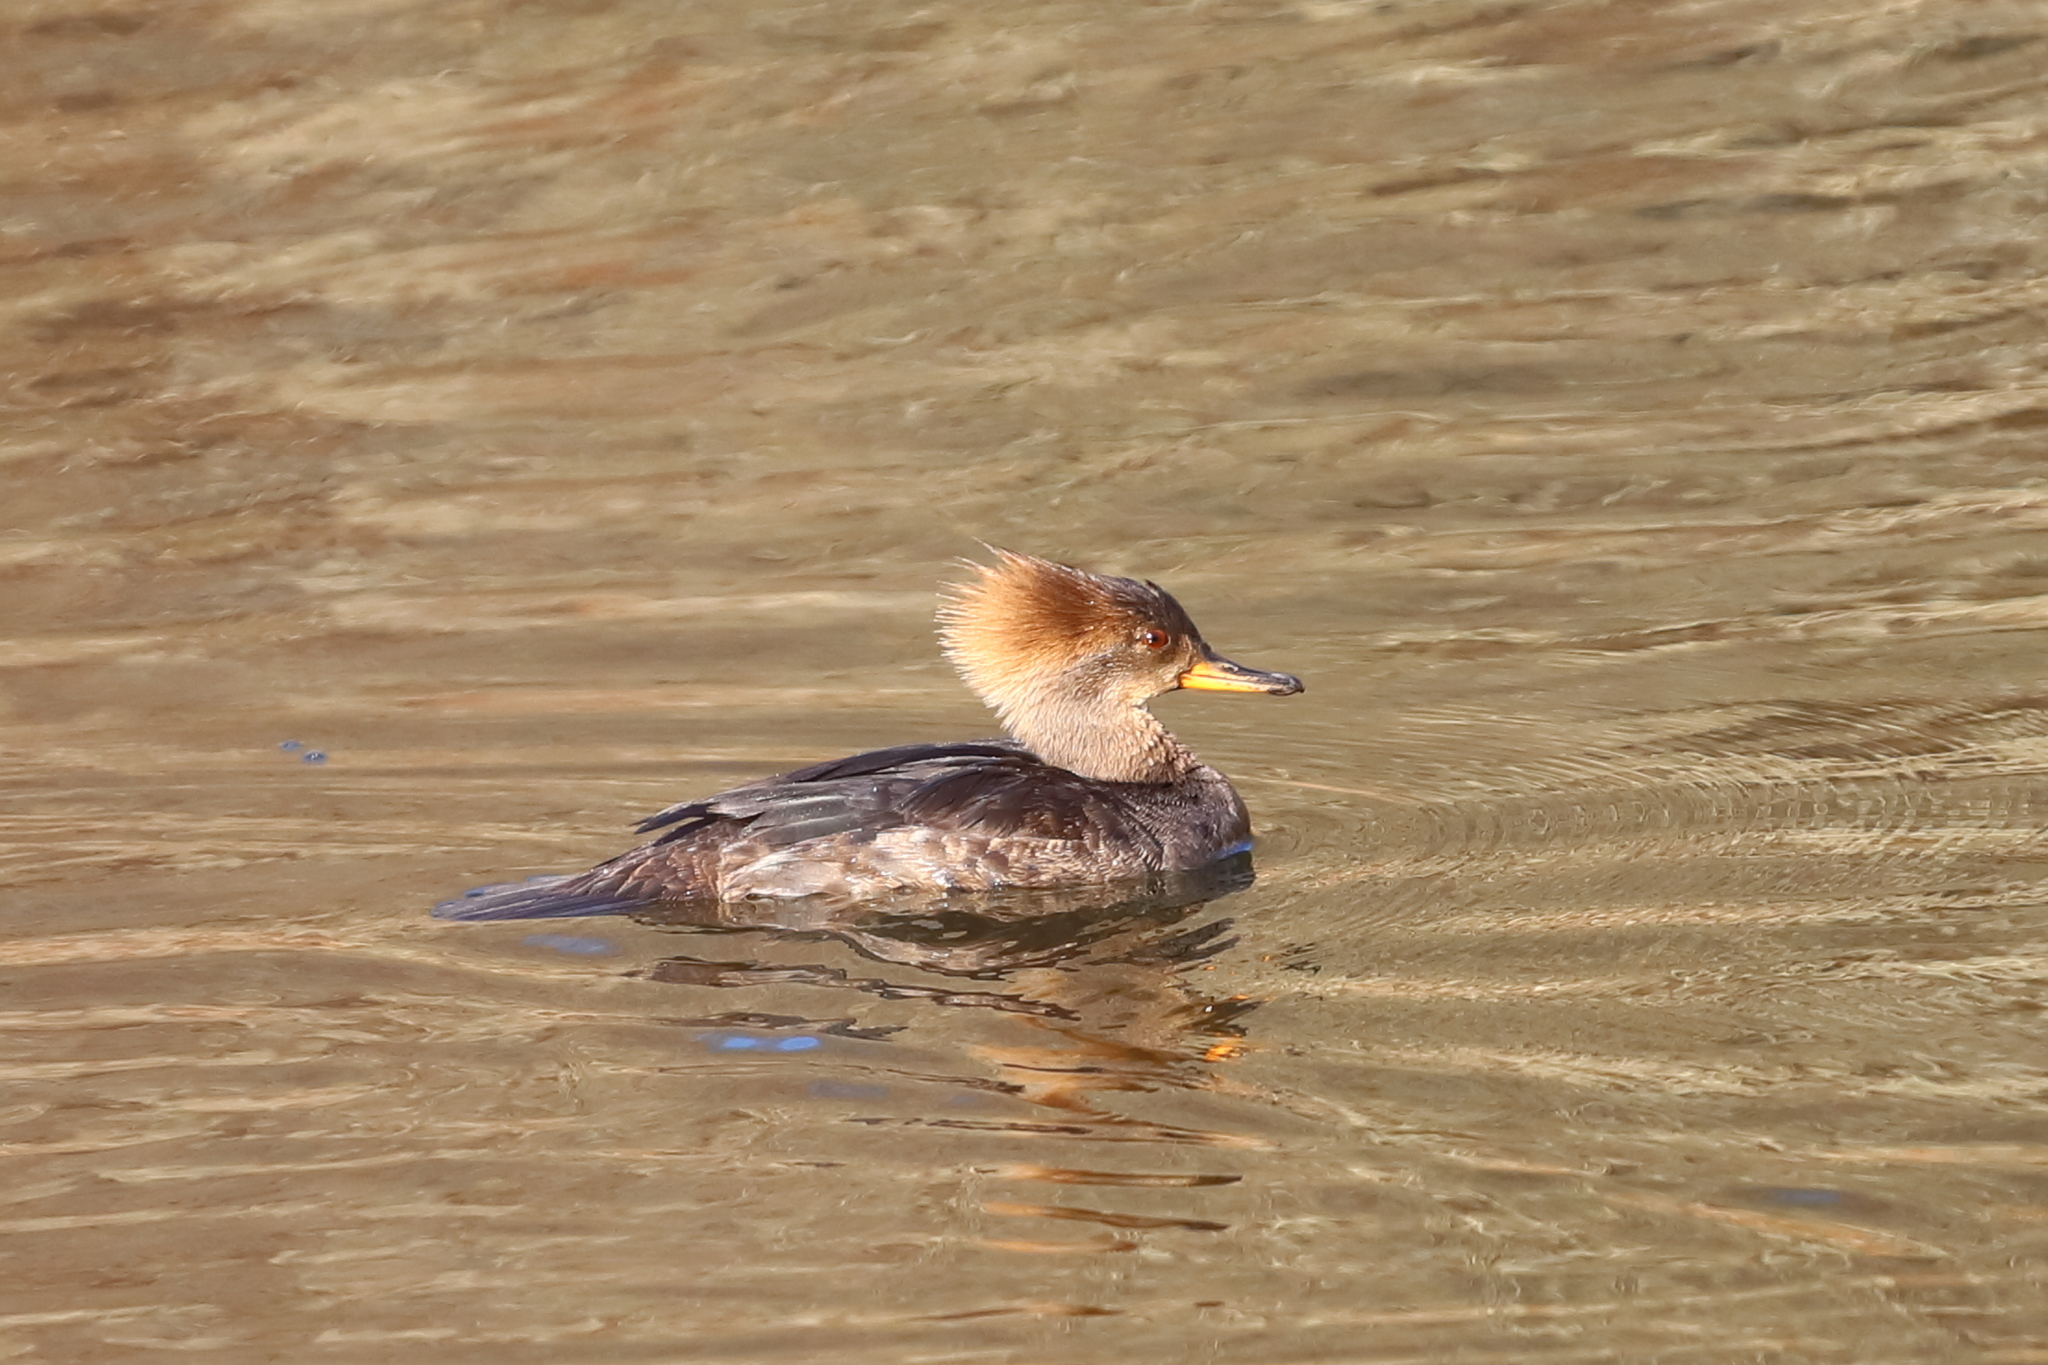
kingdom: Animalia
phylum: Chordata
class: Aves
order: Anseriformes
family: Anatidae
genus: Lophodytes
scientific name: Lophodytes cucullatus
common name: Hooded merganser
